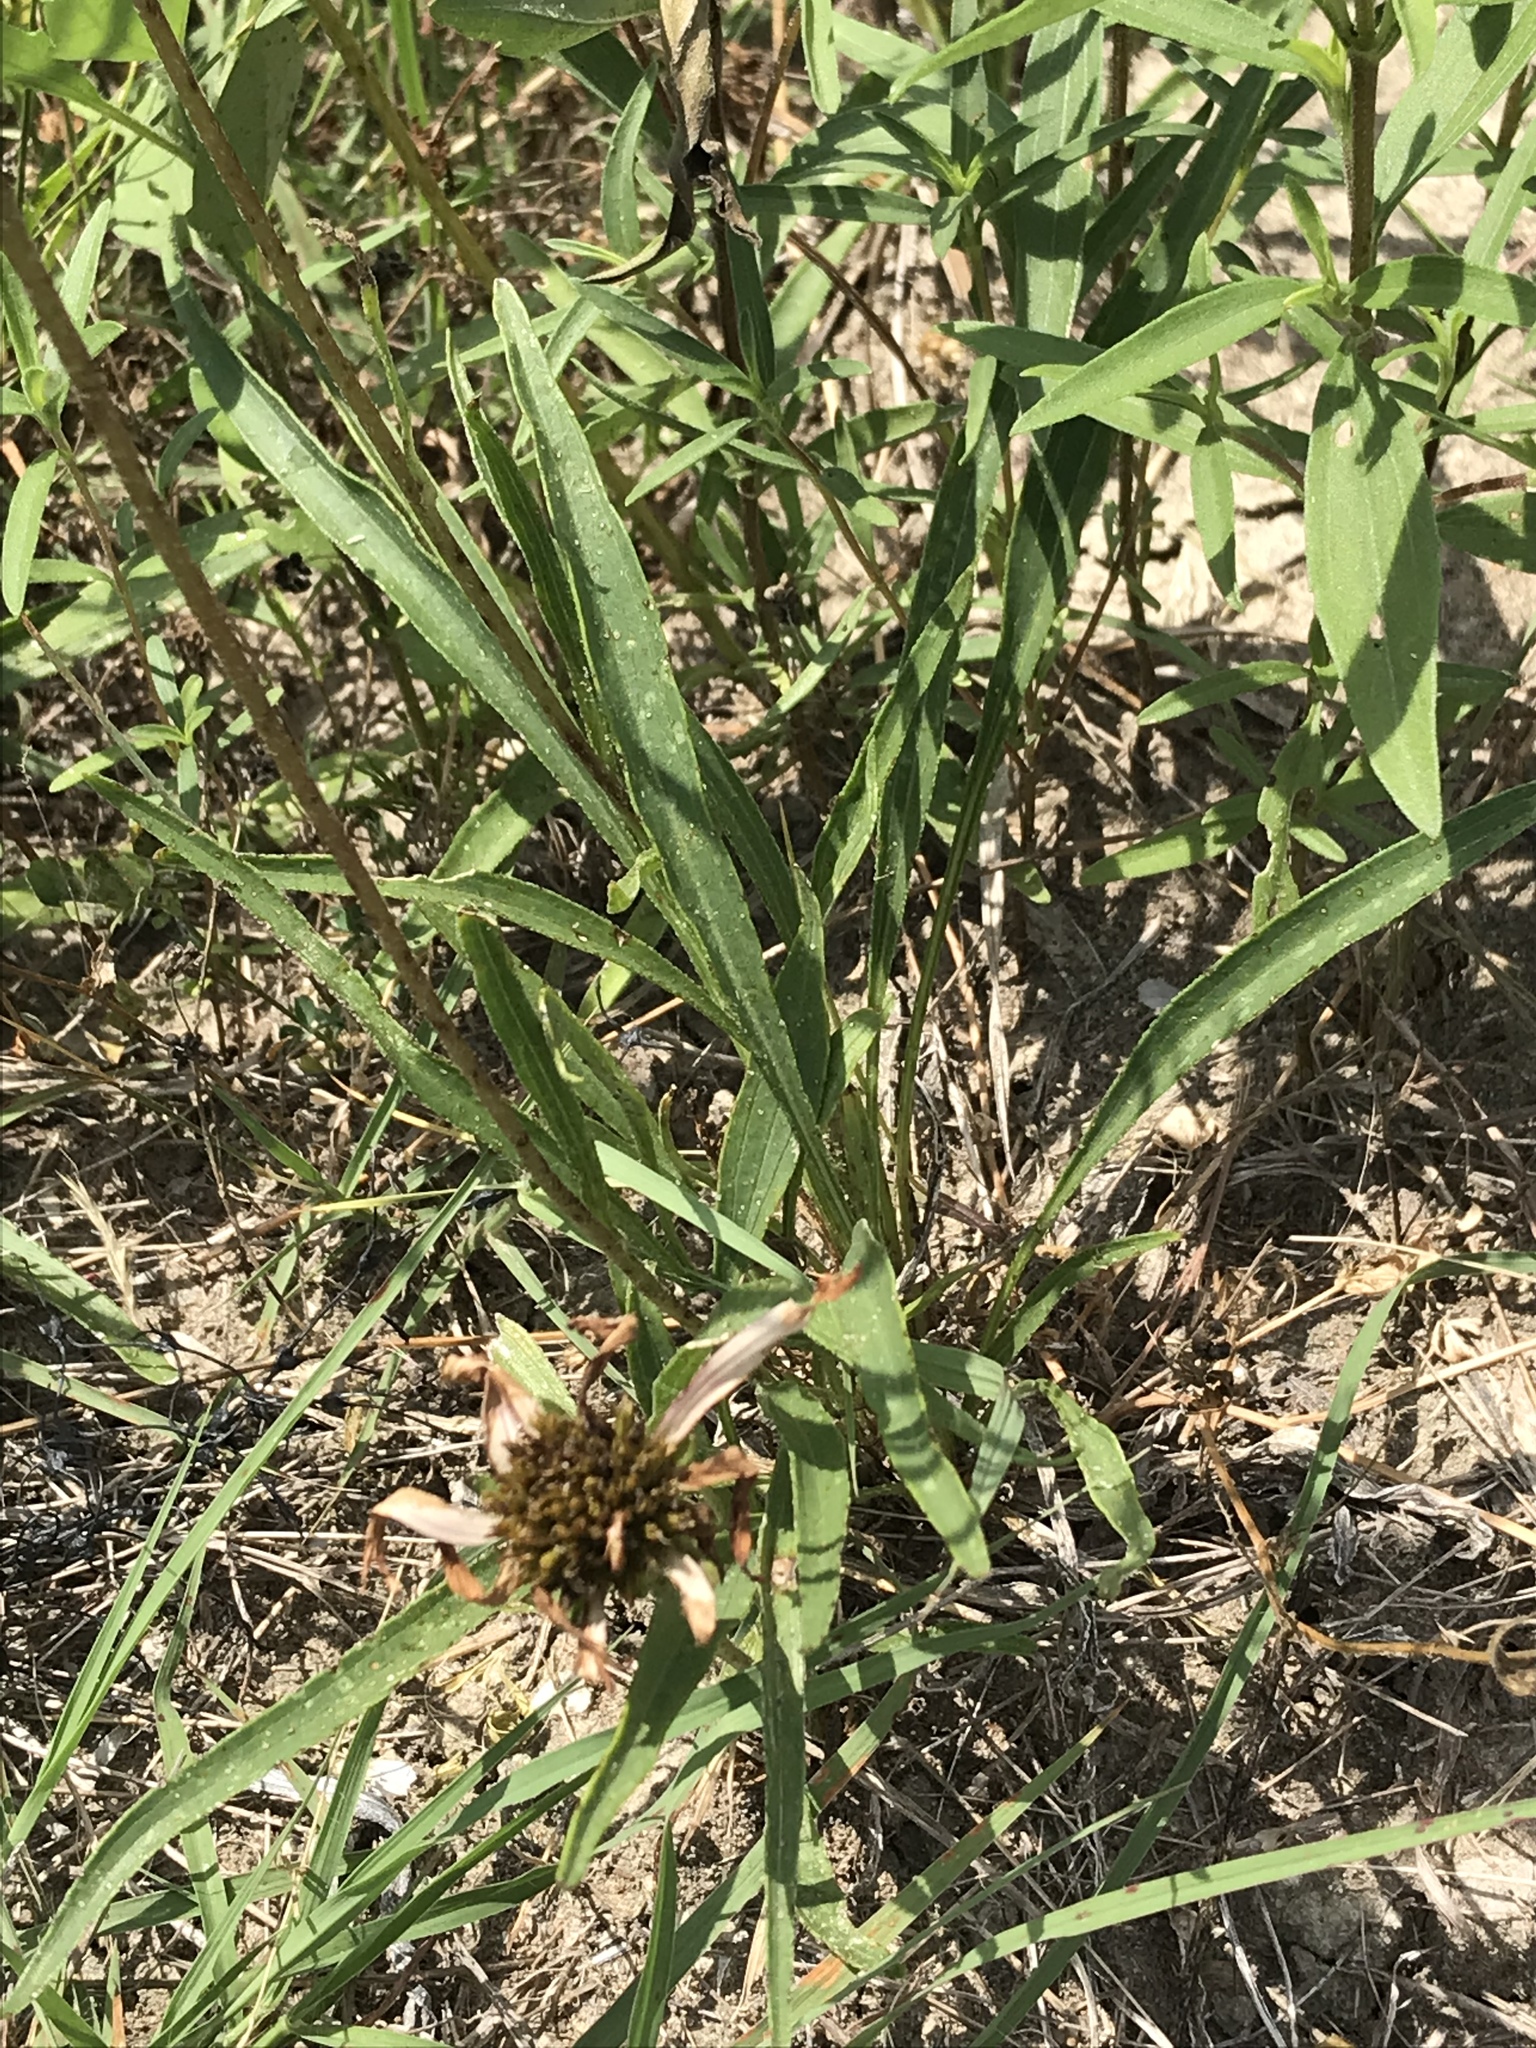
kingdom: Plantae
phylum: Tracheophyta
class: Magnoliopsida
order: Asterales
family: Asteraceae
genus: Echinacea
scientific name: Echinacea paradoxa
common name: Bush's purple-coneflower
